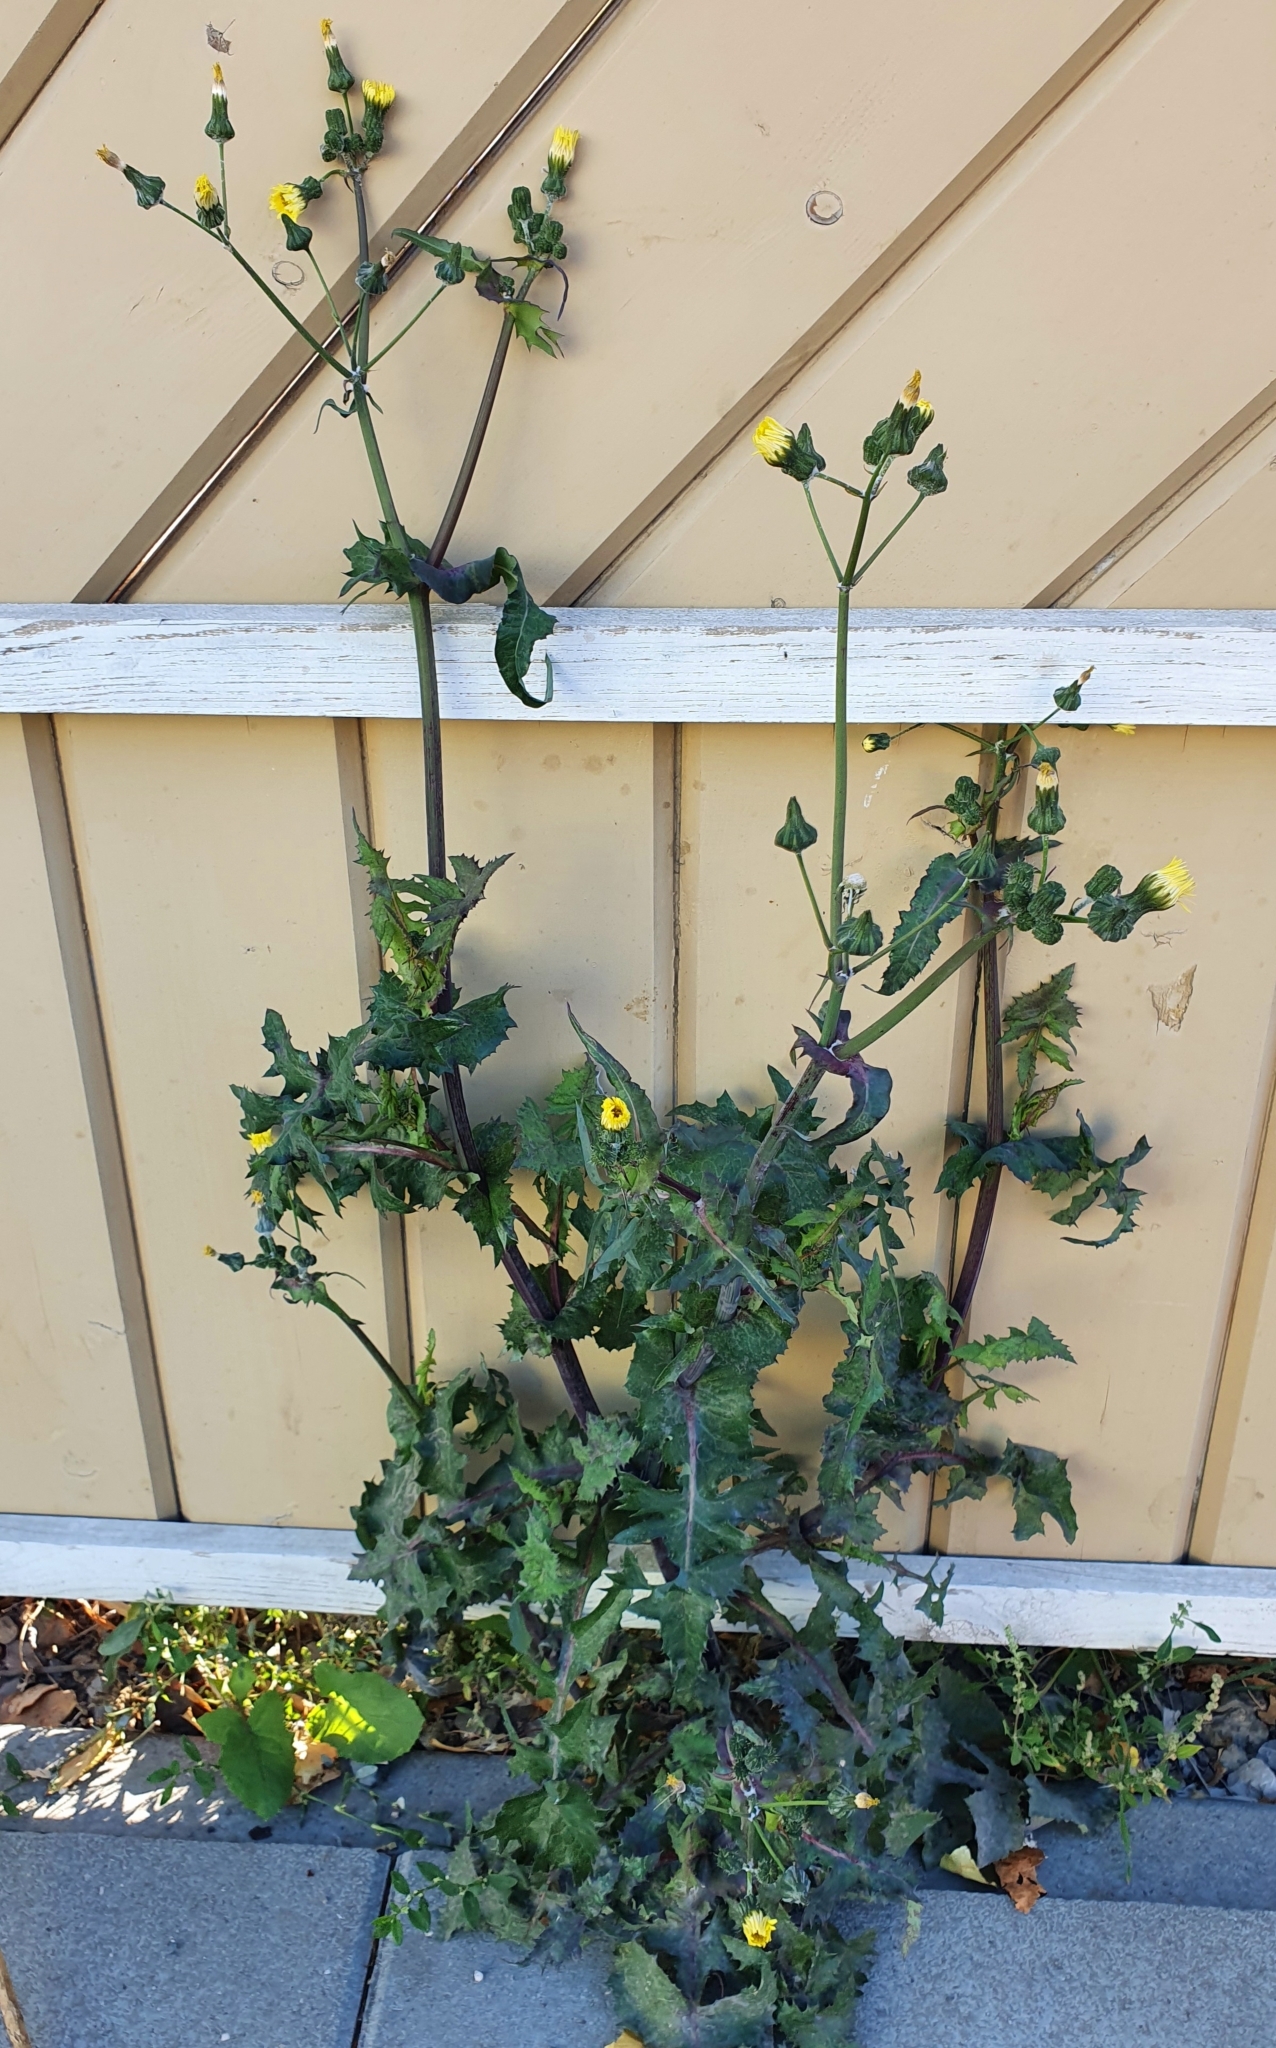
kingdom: Plantae
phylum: Tracheophyta
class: Magnoliopsida
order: Asterales
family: Asteraceae
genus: Sonchus
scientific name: Sonchus oleraceus
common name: Common sowthistle
